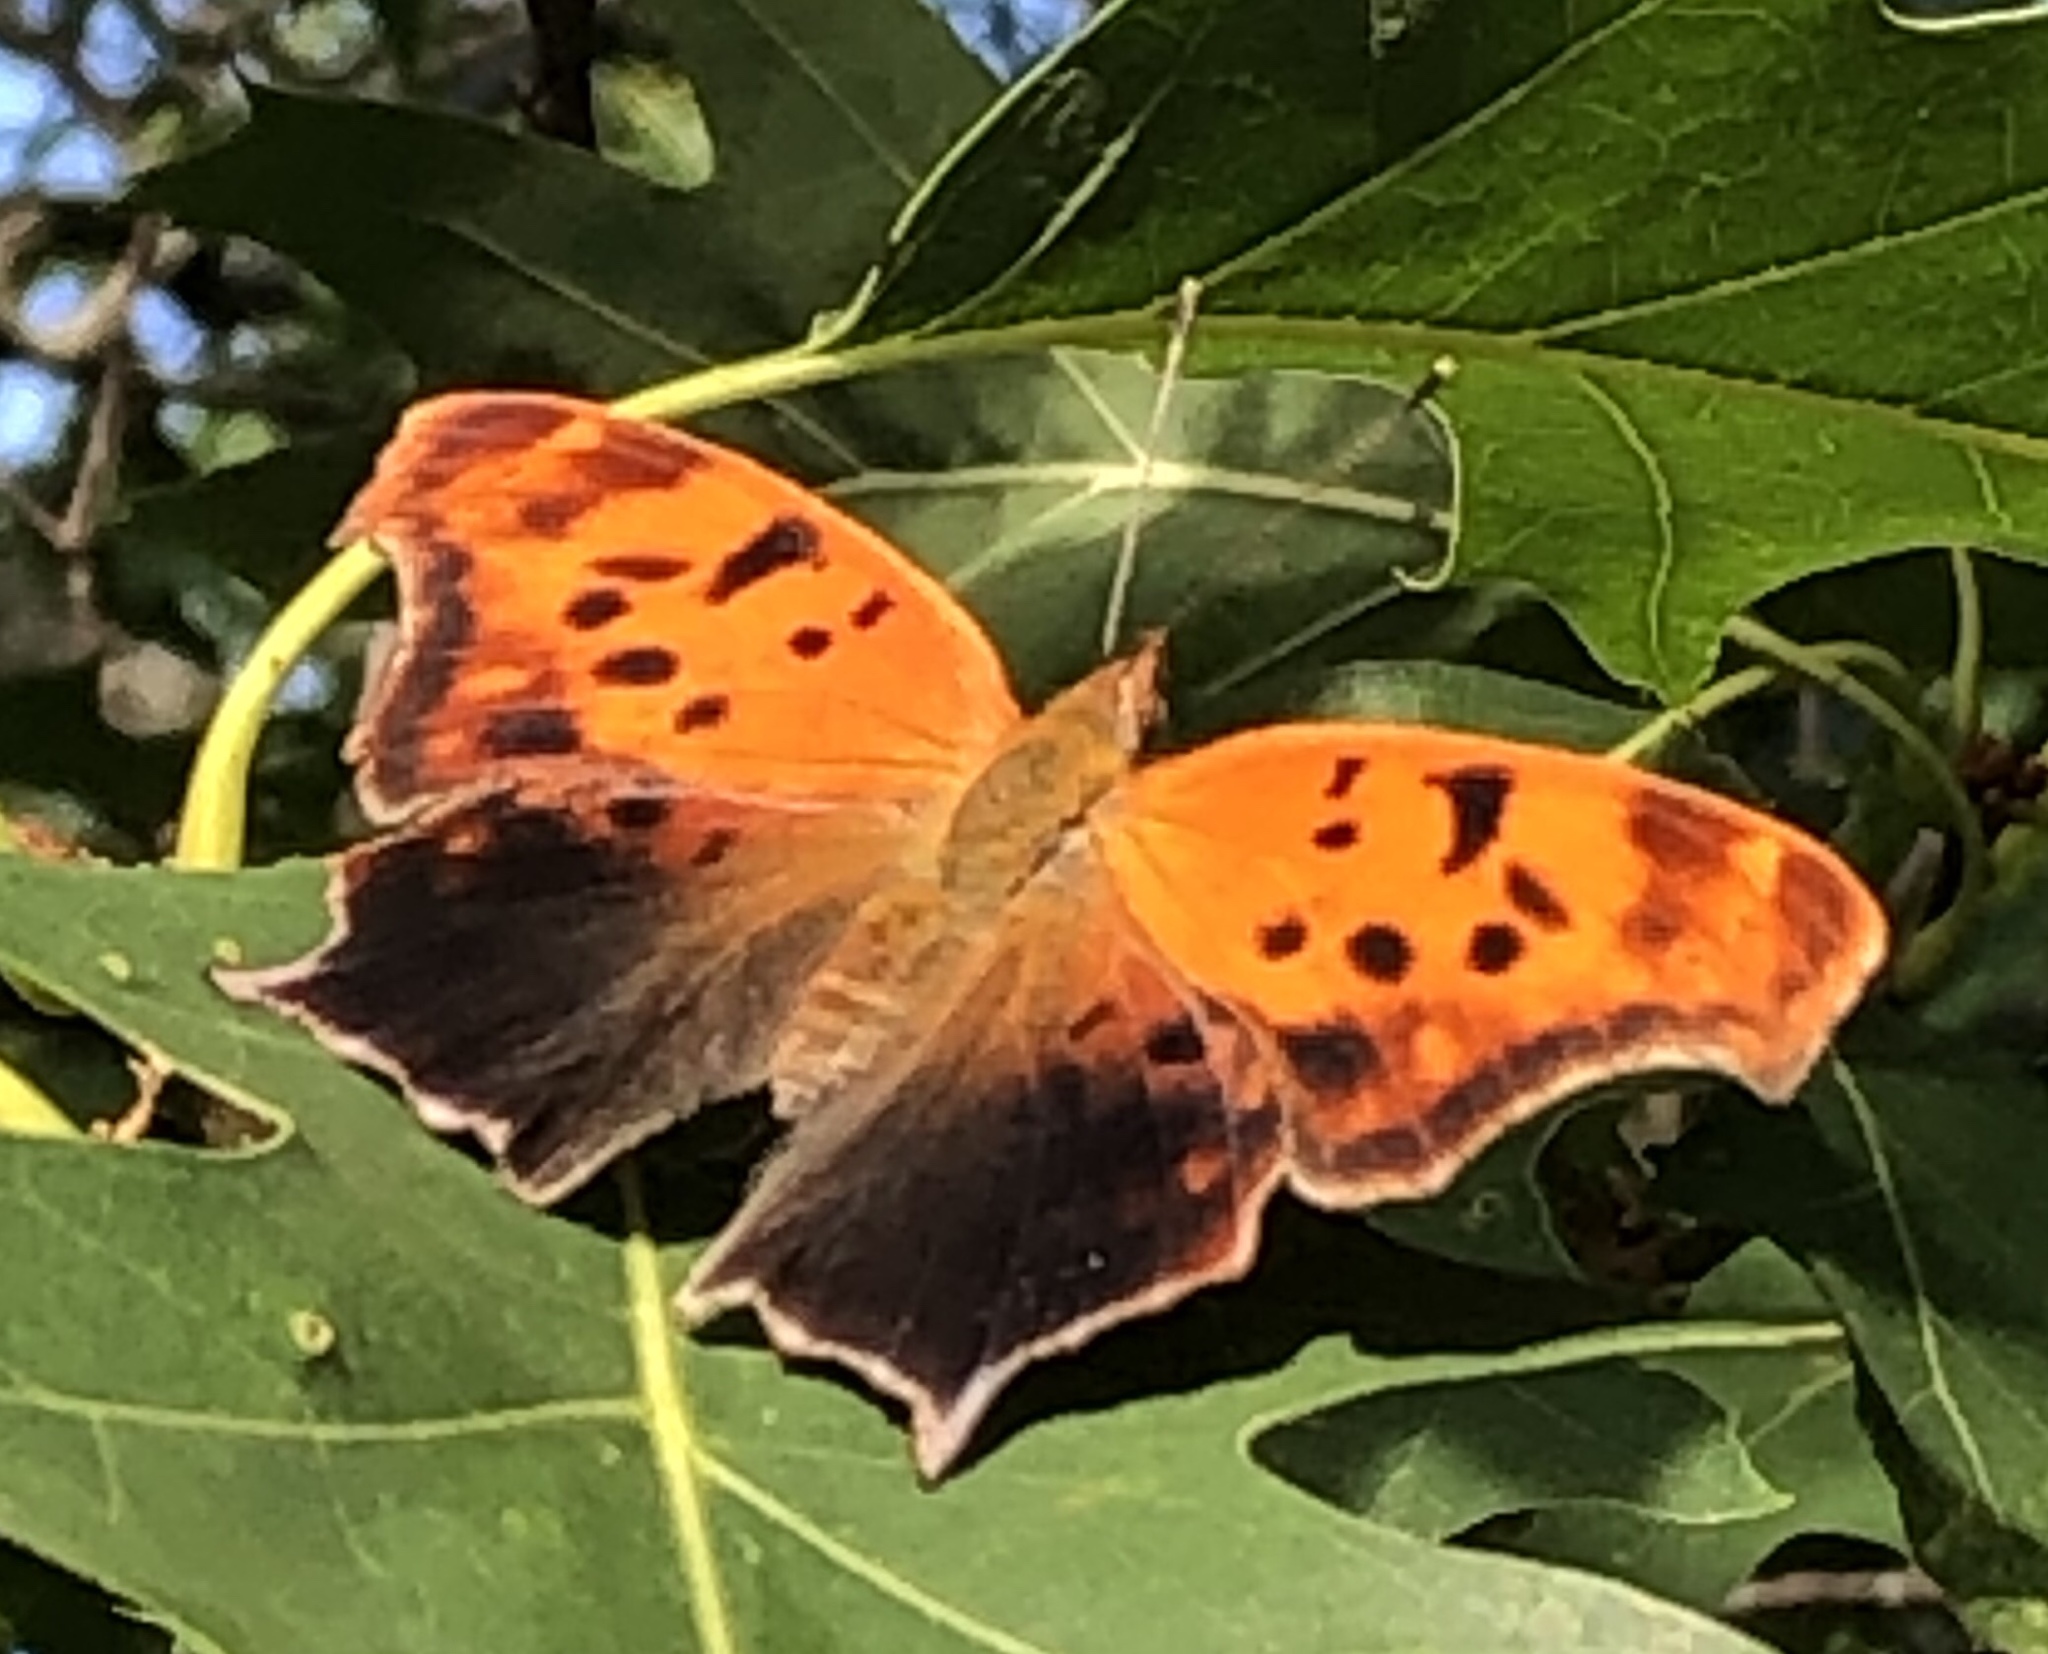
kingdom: Animalia
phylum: Arthropoda
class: Insecta
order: Lepidoptera
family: Nymphalidae
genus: Polygonia
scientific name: Polygonia interrogationis
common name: Question mark
